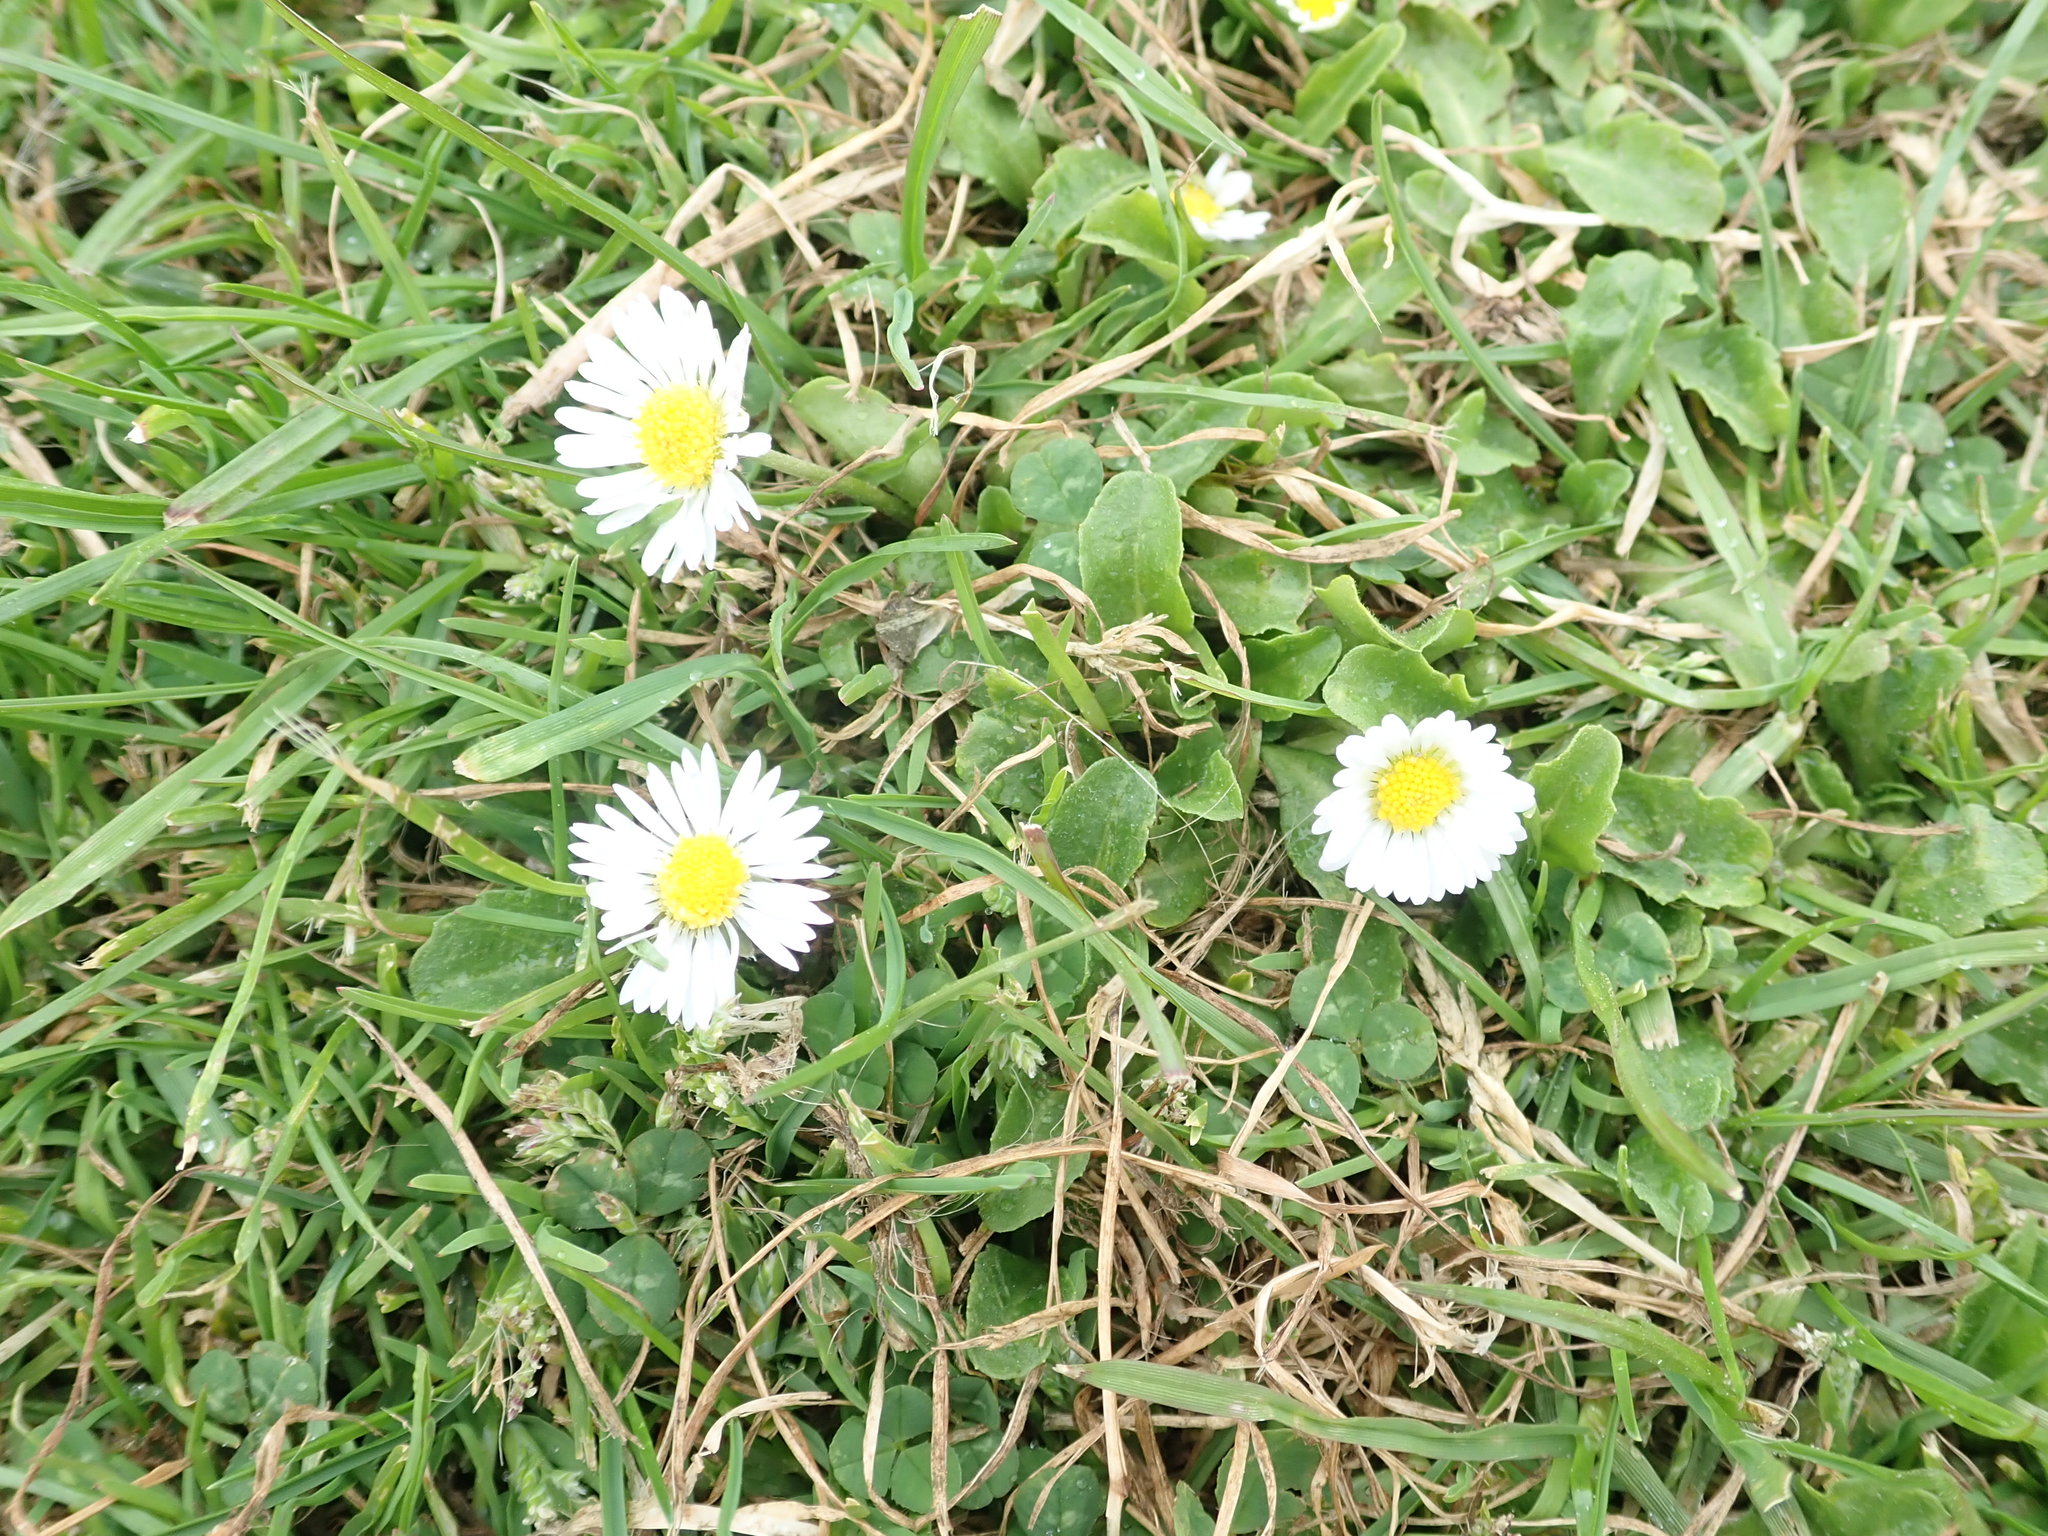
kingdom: Plantae
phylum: Tracheophyta
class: Magnoliopsida
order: Asterales
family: Asteraceae
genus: Bellis
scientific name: Bellis perennis
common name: Lawndaisy
